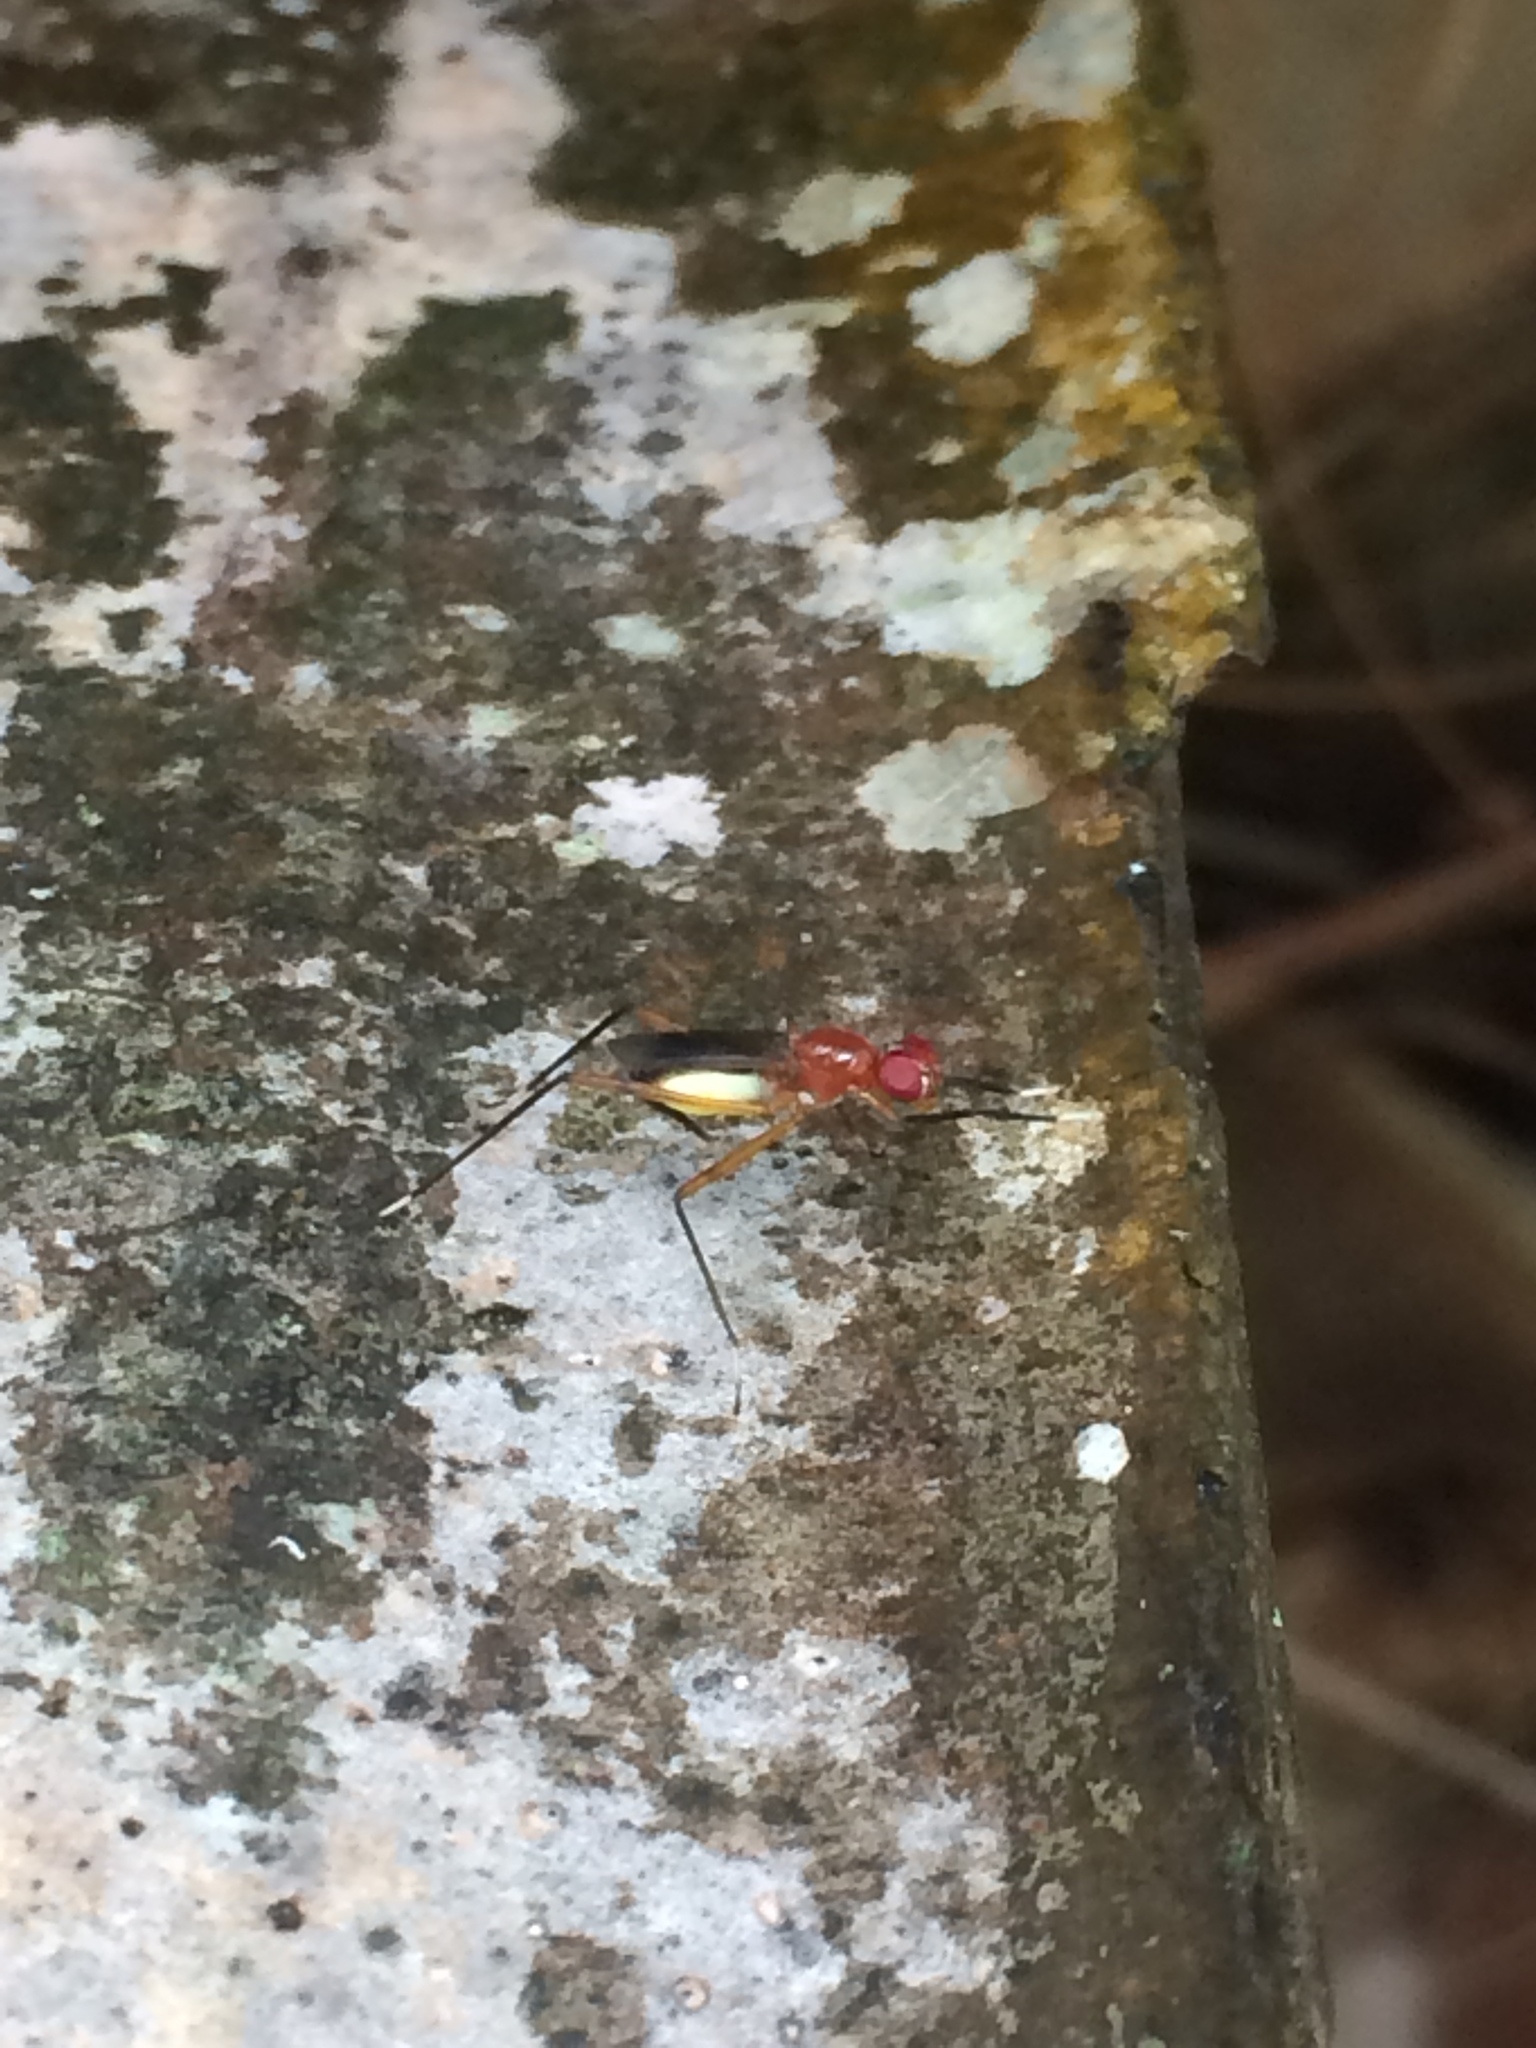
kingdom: Animalia
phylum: Arthropoda
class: Insecta
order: Diptera
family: Micropezidae
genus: Grallipeza
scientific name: Grallipeza nebulosa
